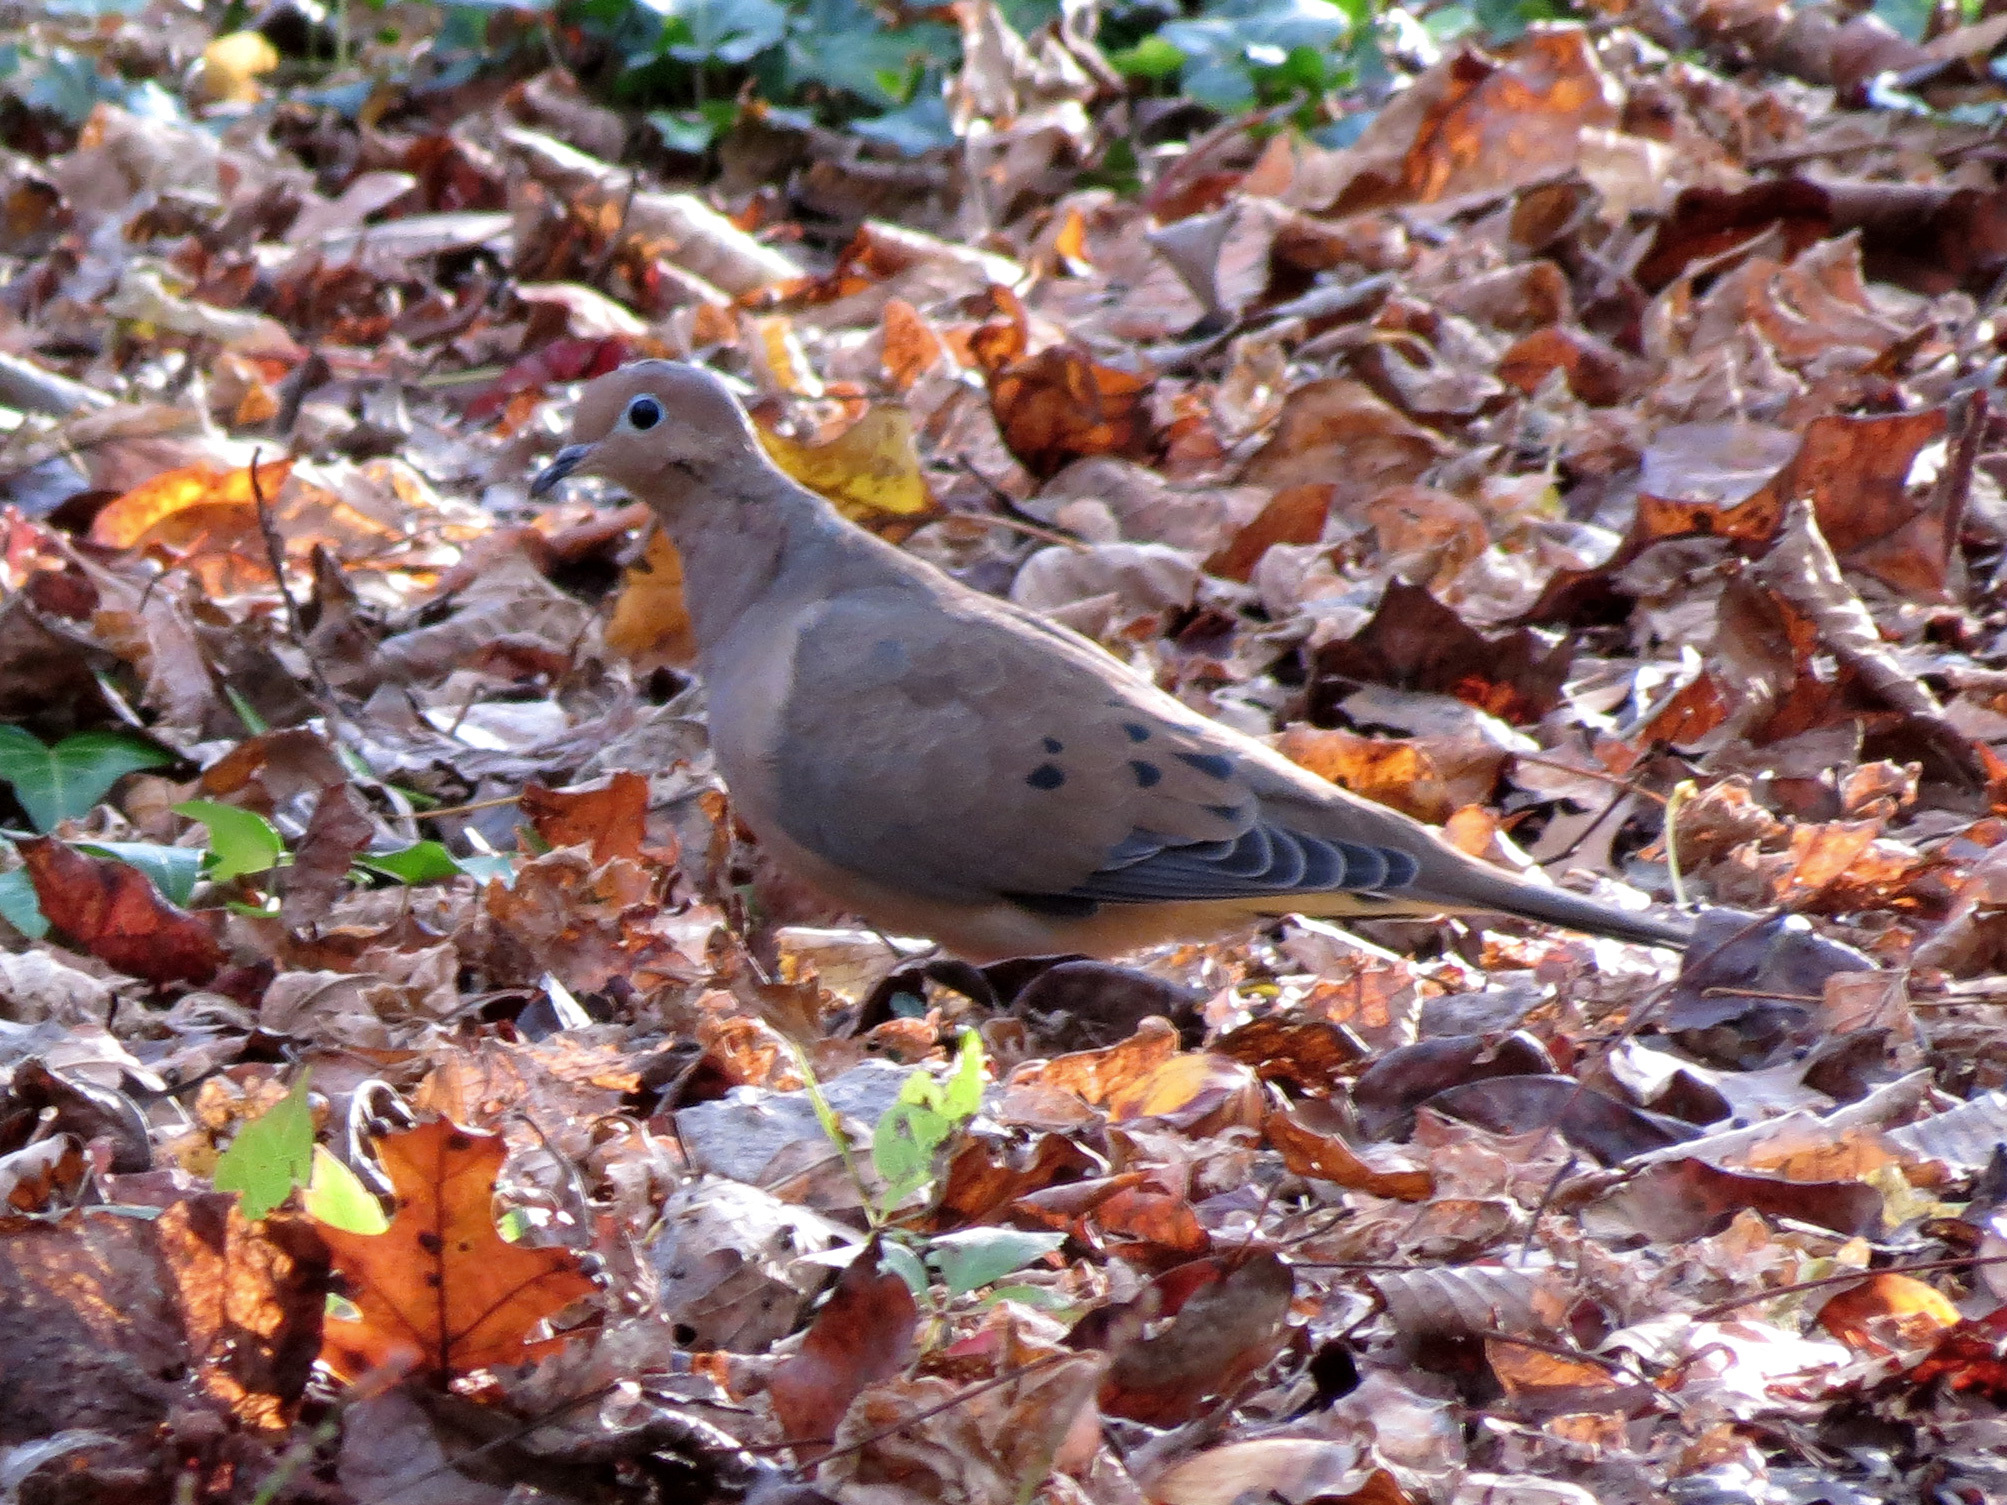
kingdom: Animalia
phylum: Chordata
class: Aves
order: Columbiformes
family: Columbidae
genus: Zenaida
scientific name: Zenaida macroura
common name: Mourning dove
